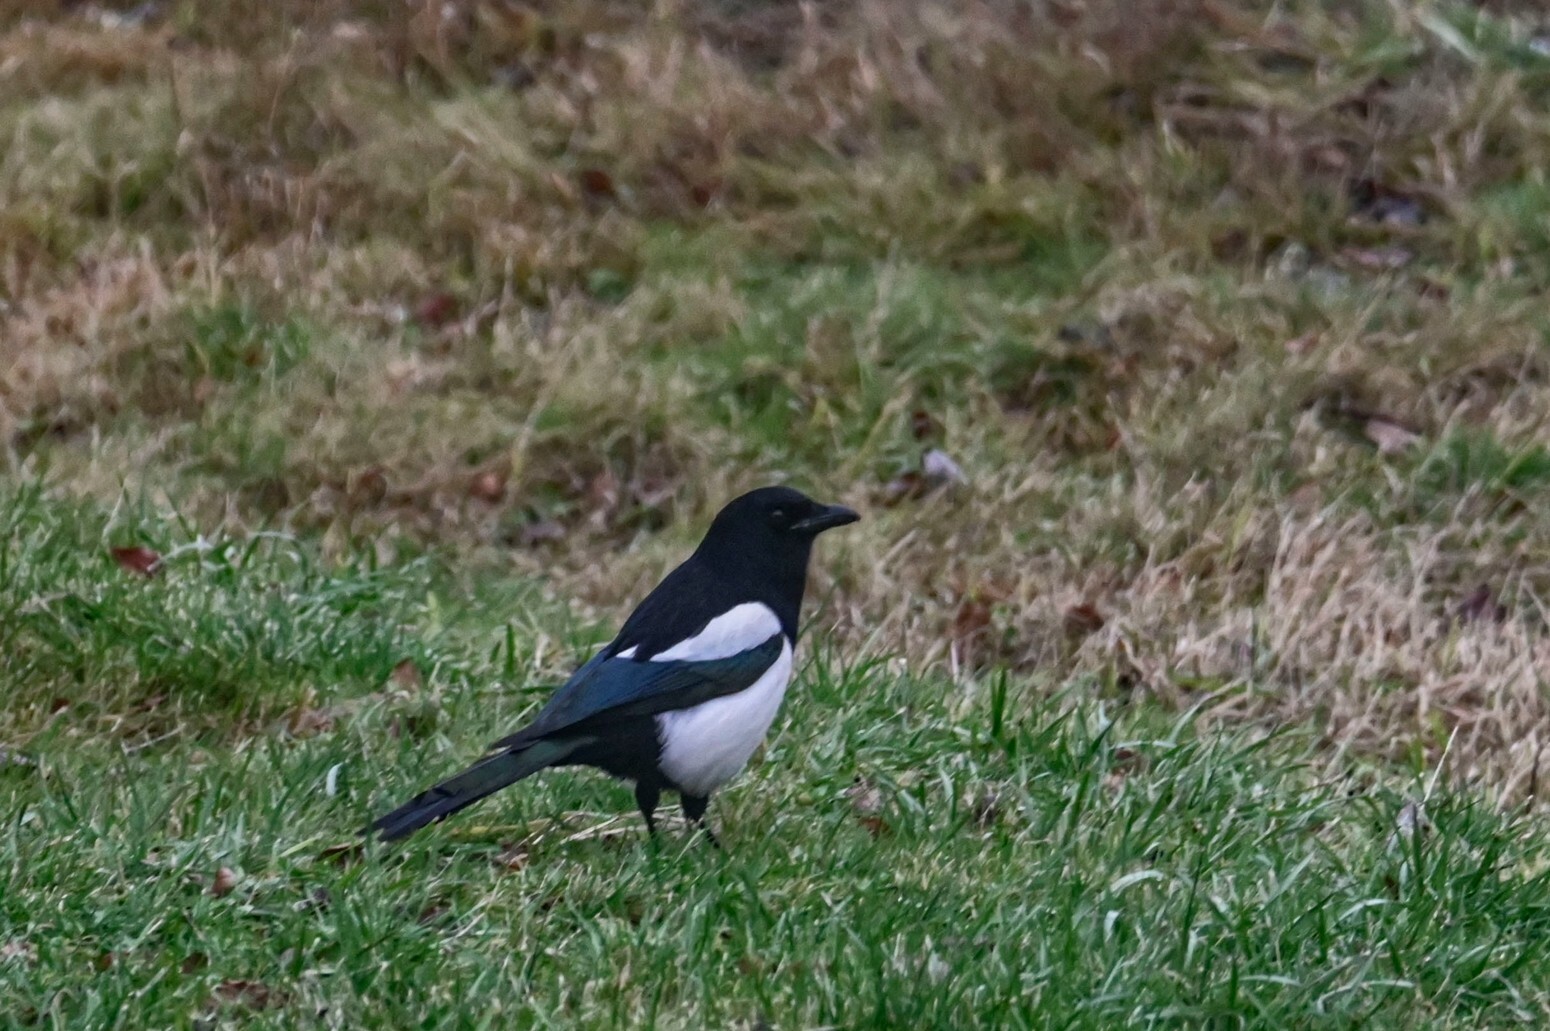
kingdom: Animalia
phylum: Chordata
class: Aves
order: Passeriformes
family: Corvidae
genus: Pica
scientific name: Pica pica
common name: Eurasian magpie
